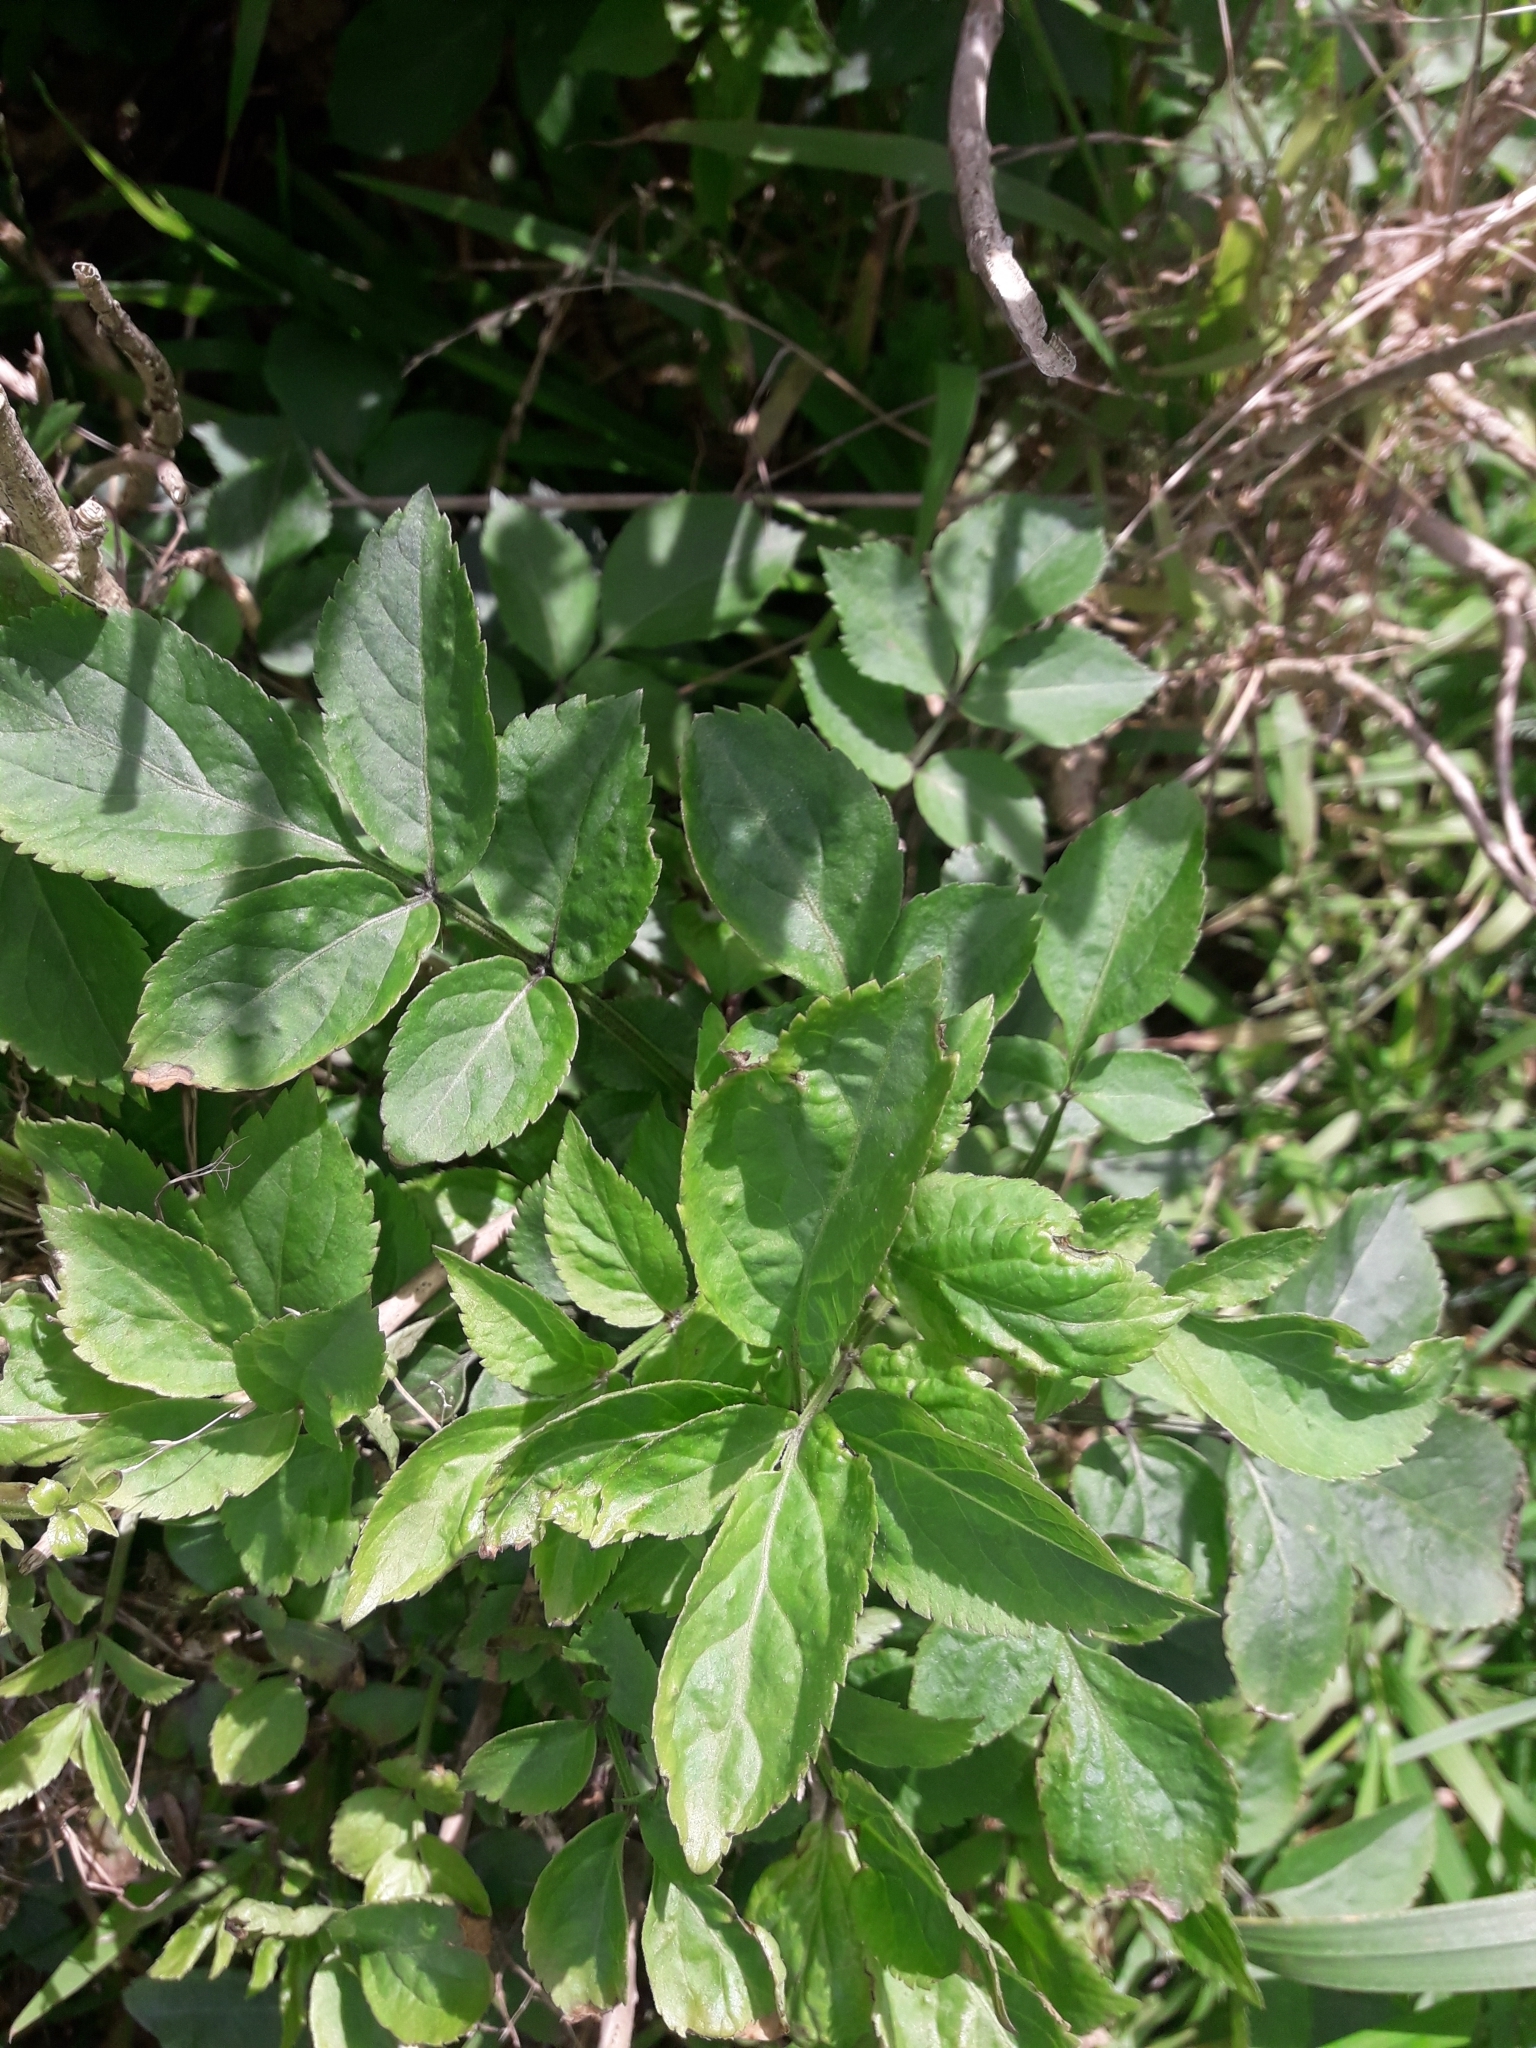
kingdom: Plantae
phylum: Tracheophyta
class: Magnoliopsida
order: Dipsacales
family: Viburnaceae
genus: Sambucus
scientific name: Sambucus nigra
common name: Elder
